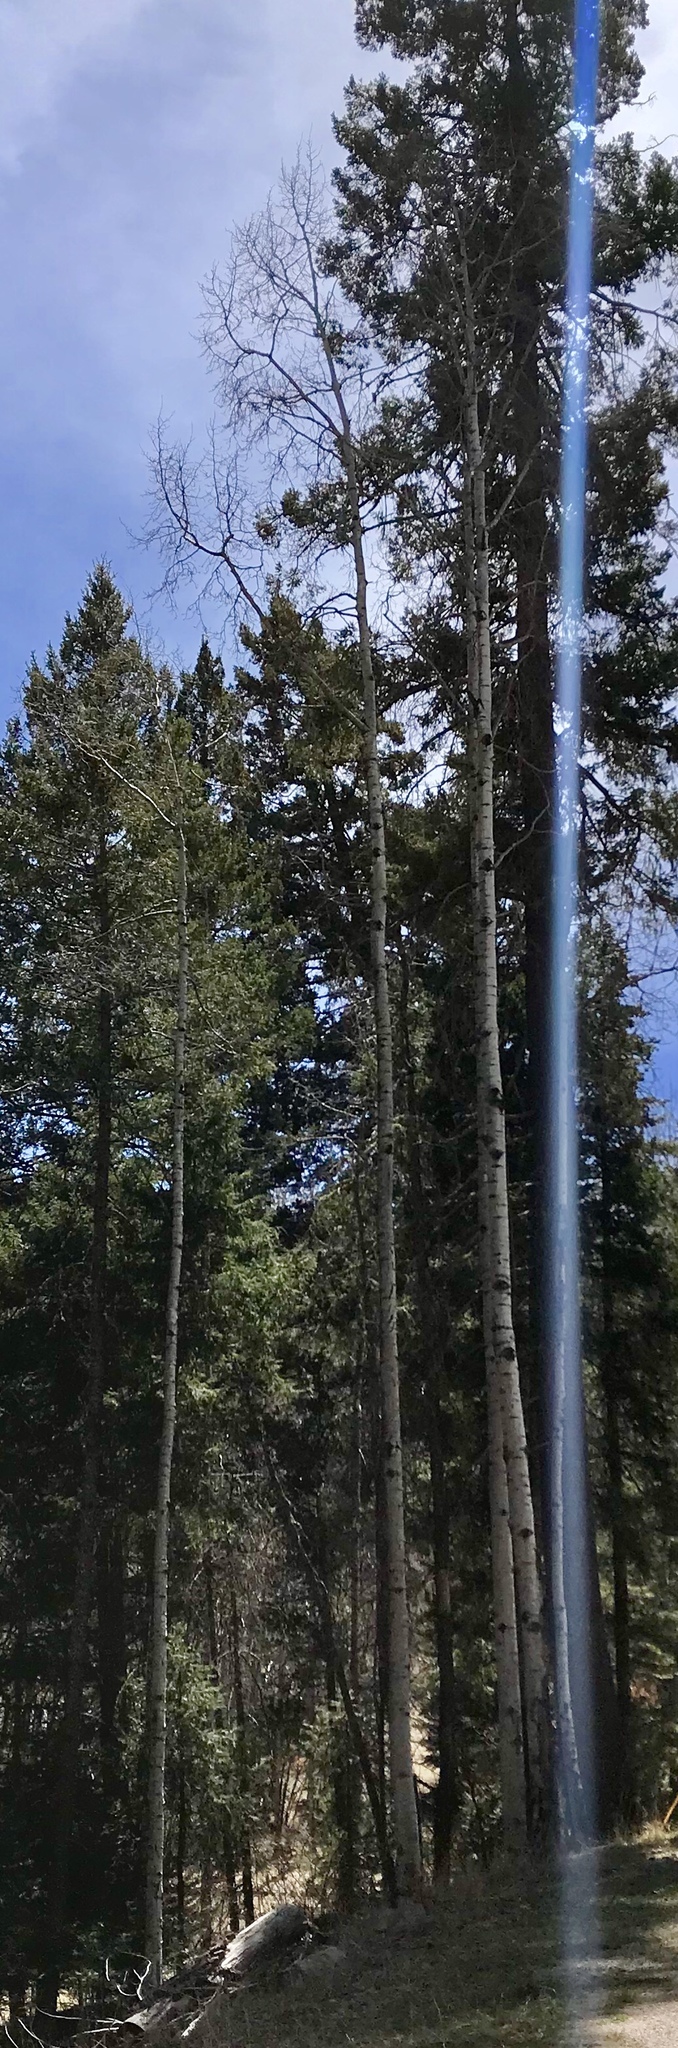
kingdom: Plantae
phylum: Tracheophyta
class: Magnoliopsida
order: Malpighiales
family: Salicaceae
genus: Populus
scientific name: Populus tremuloides
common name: Quaking aspen
